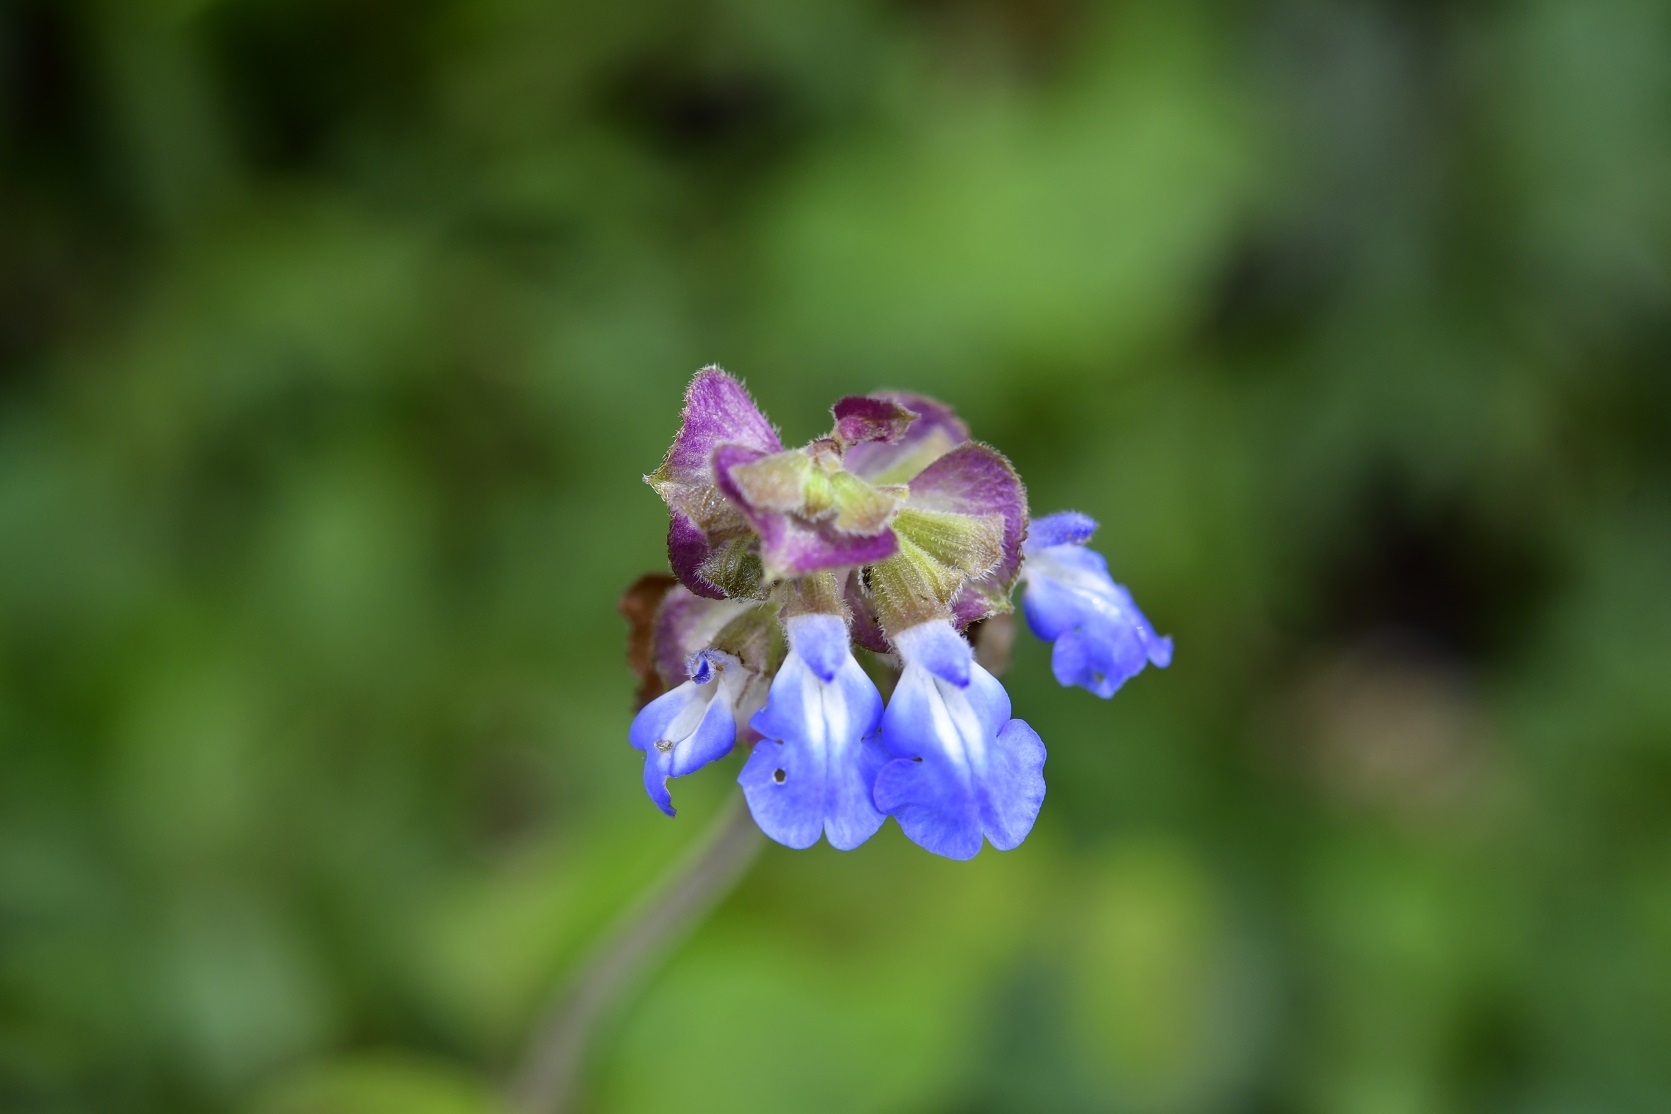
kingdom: Plantae
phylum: Tracheophyta
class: Magnoliopsida
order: Lamiales
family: Lamiaceae
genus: Salvia
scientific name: Salvia mocinoi
